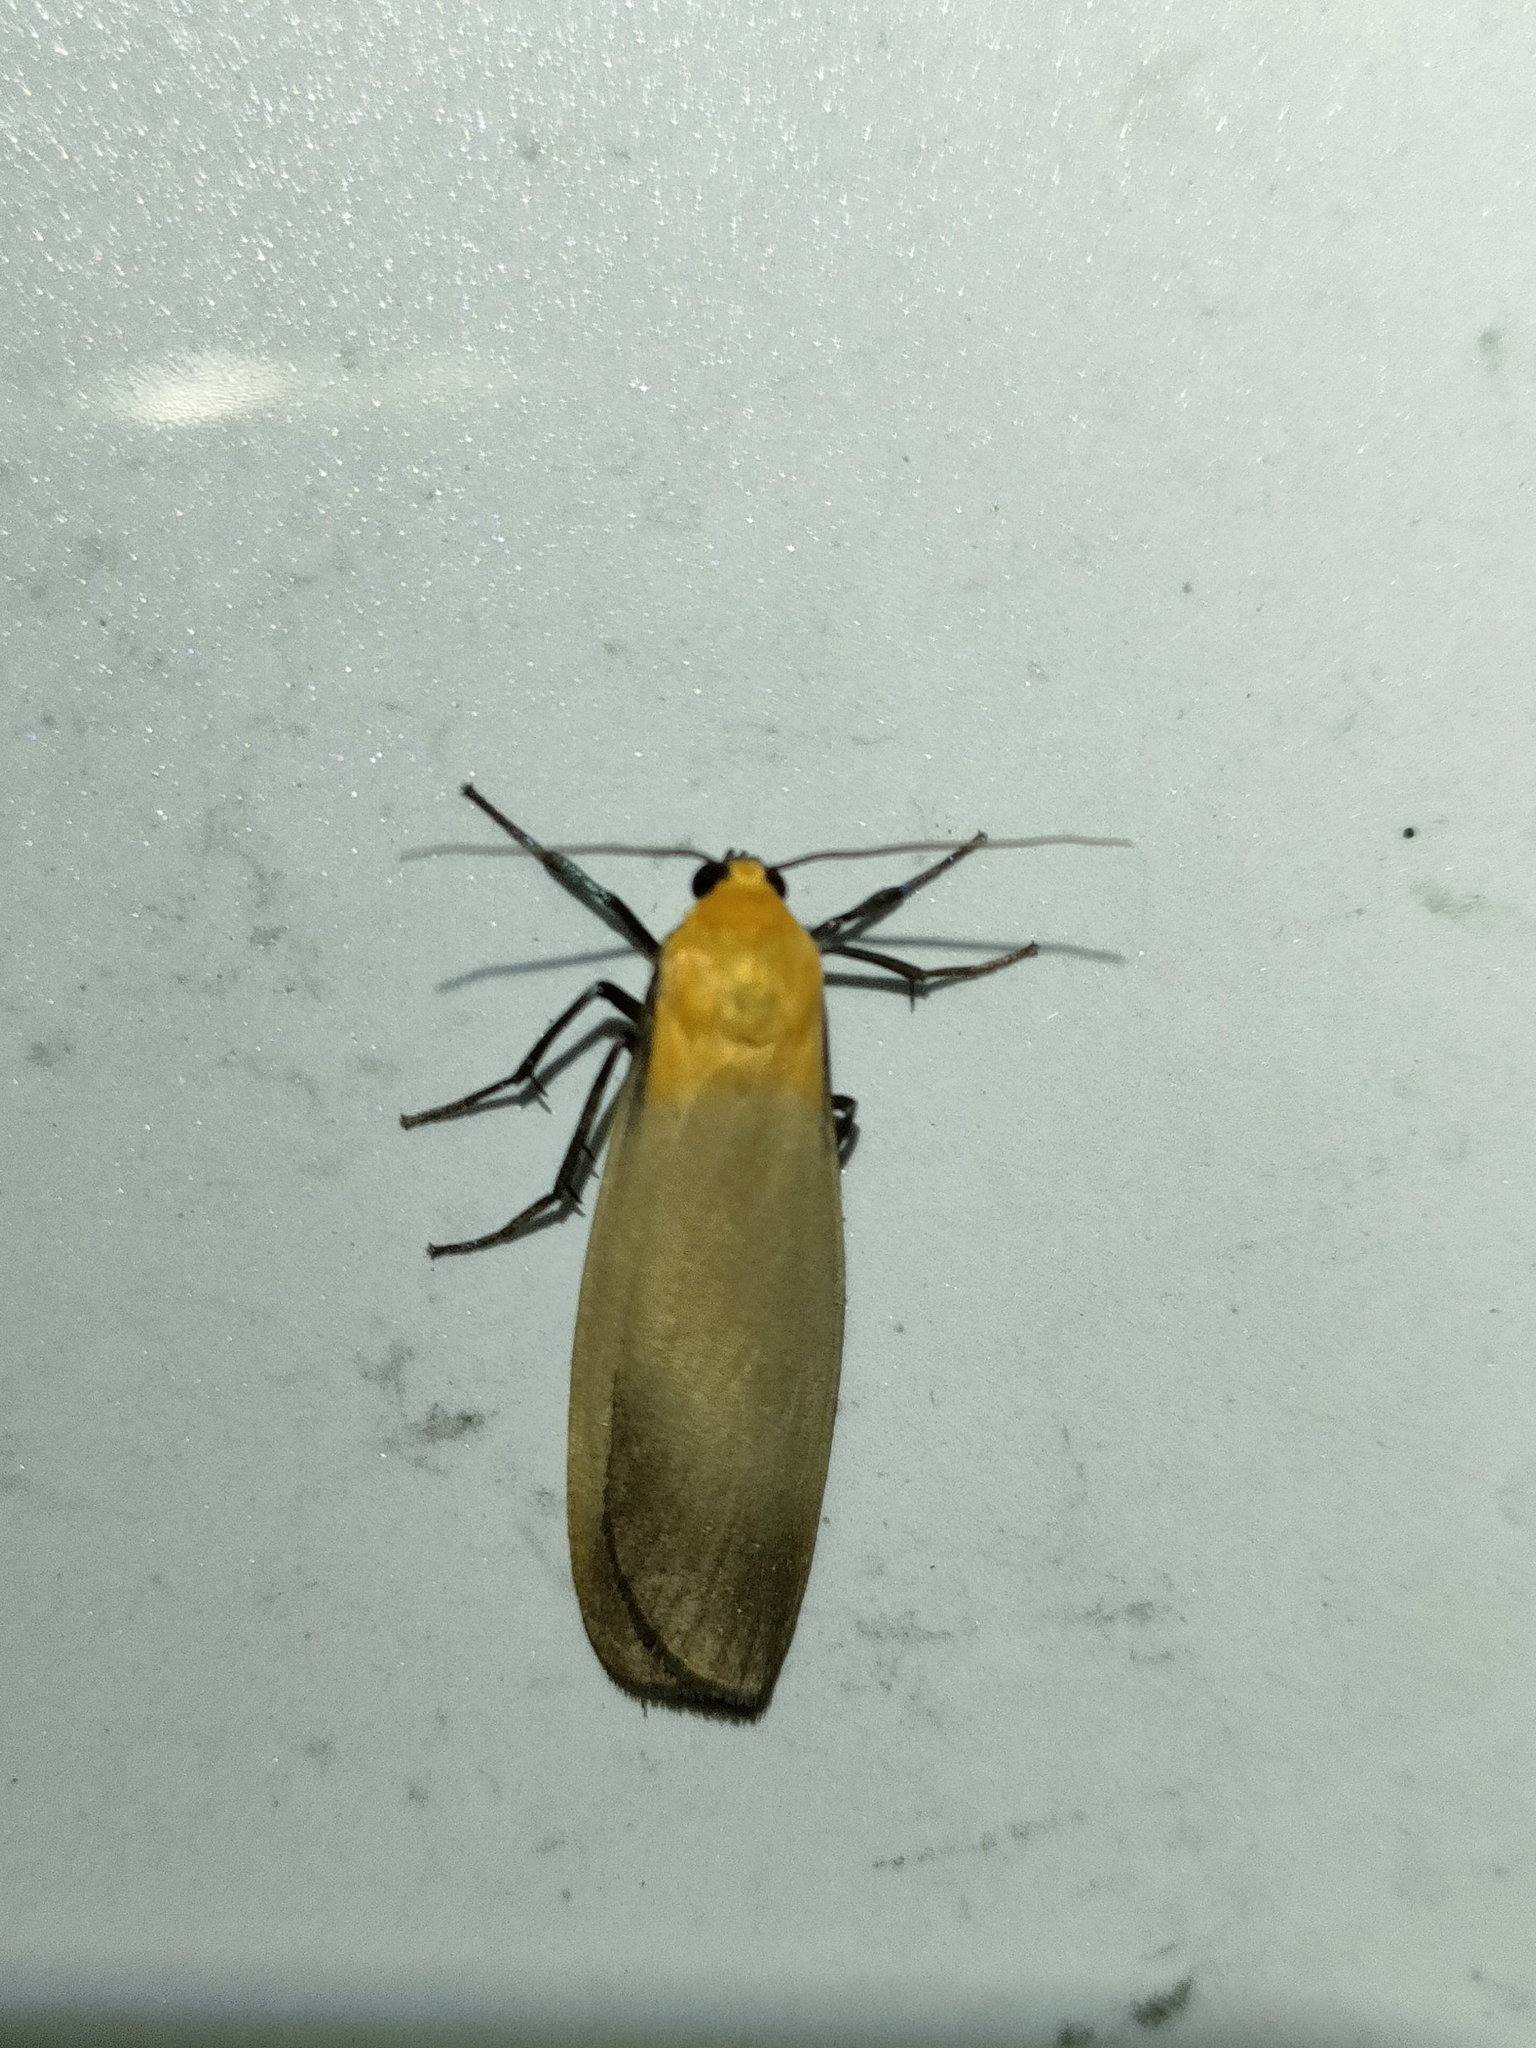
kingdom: Animalia
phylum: Arthropoda
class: Insecta
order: Lepidoptera
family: Erebidae
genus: Lithosia
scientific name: Lithosia quadra
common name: Four-spotted footman
